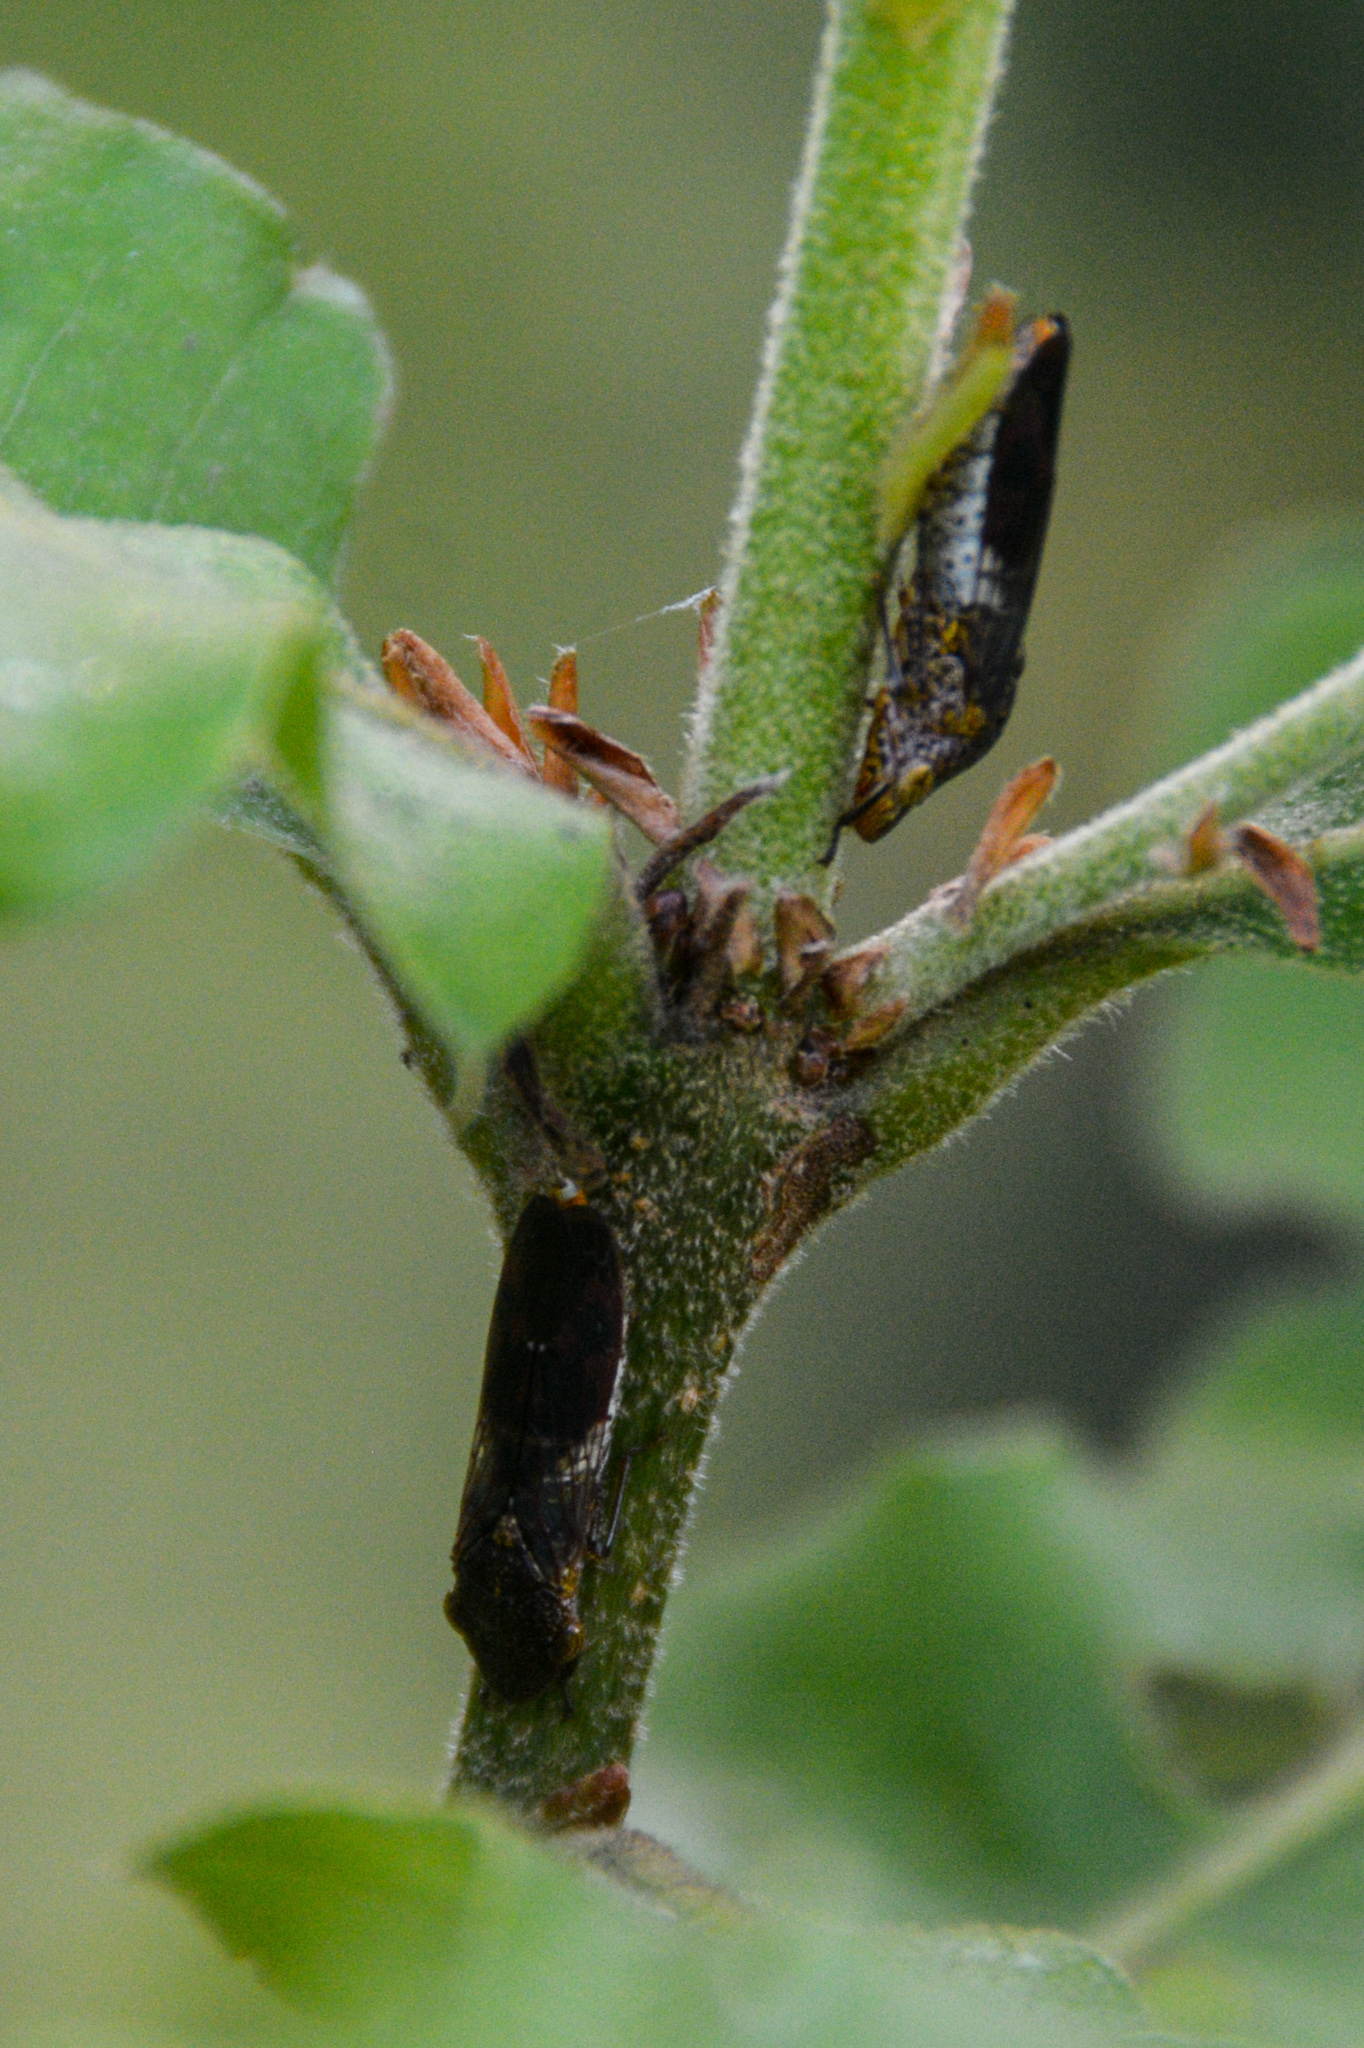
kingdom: Animalia
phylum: Arthropoda
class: Insecta
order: Hemiptera
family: Cicadellidae
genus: Homalodisca
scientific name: Homalodisca vitripennis
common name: Glassy-winged sharpshooter
